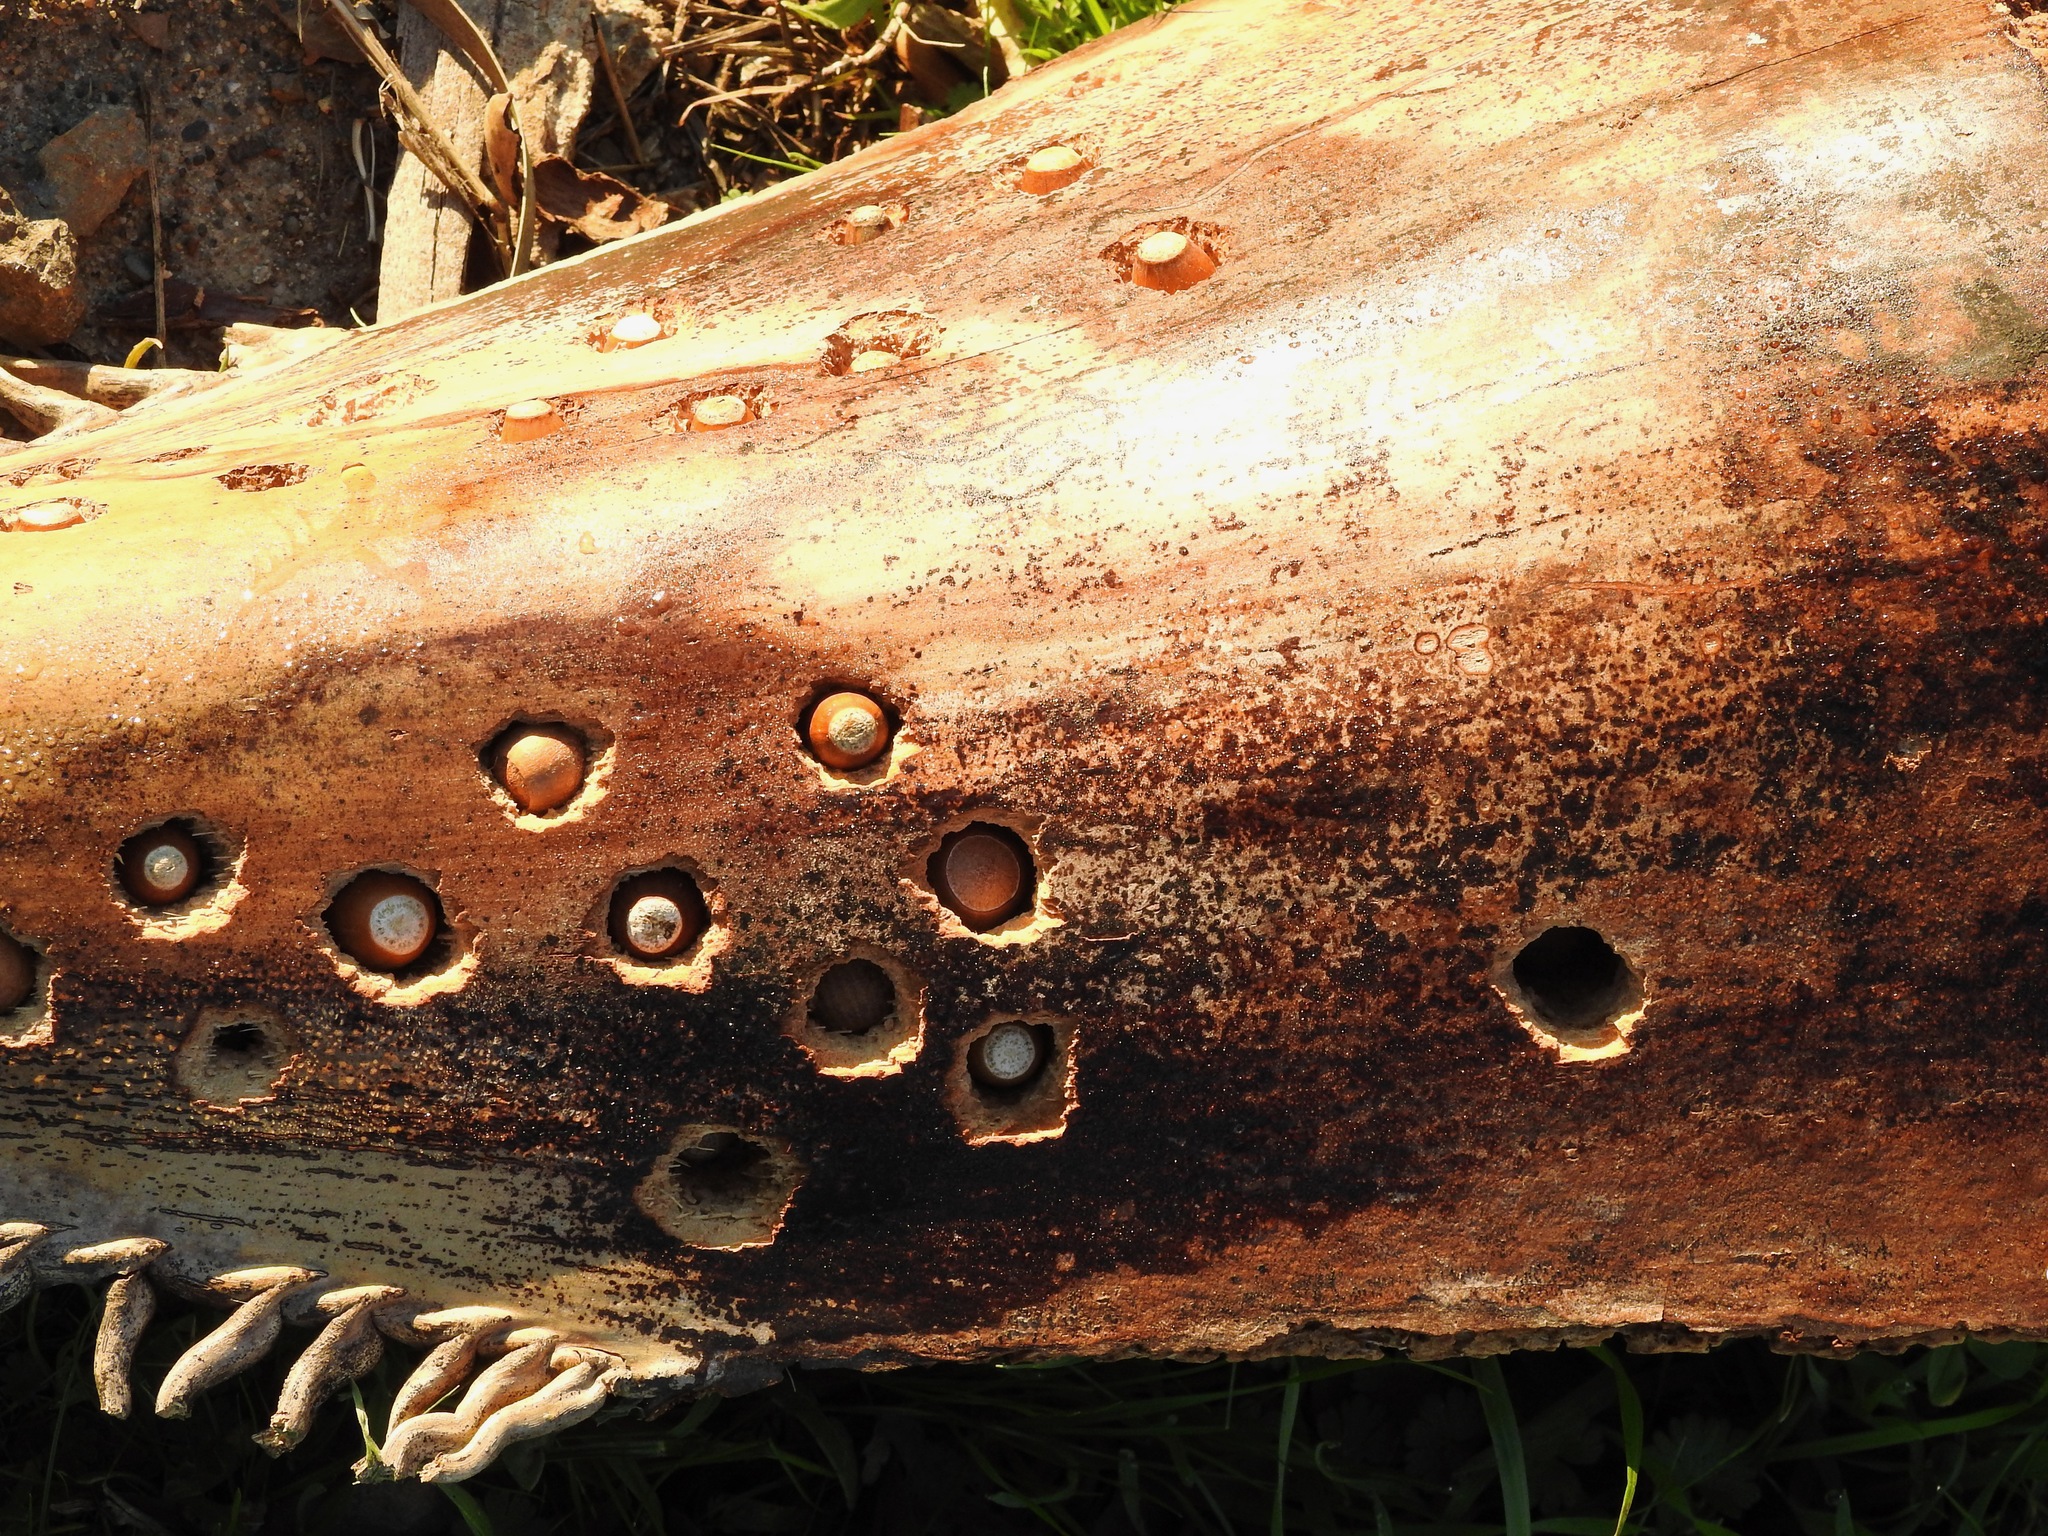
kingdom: Animalia
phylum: Chordata
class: Aves
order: Piciformes
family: Picidae
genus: Melanerpes
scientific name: Melanerpes formicivorus
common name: Acorn woodpecker
